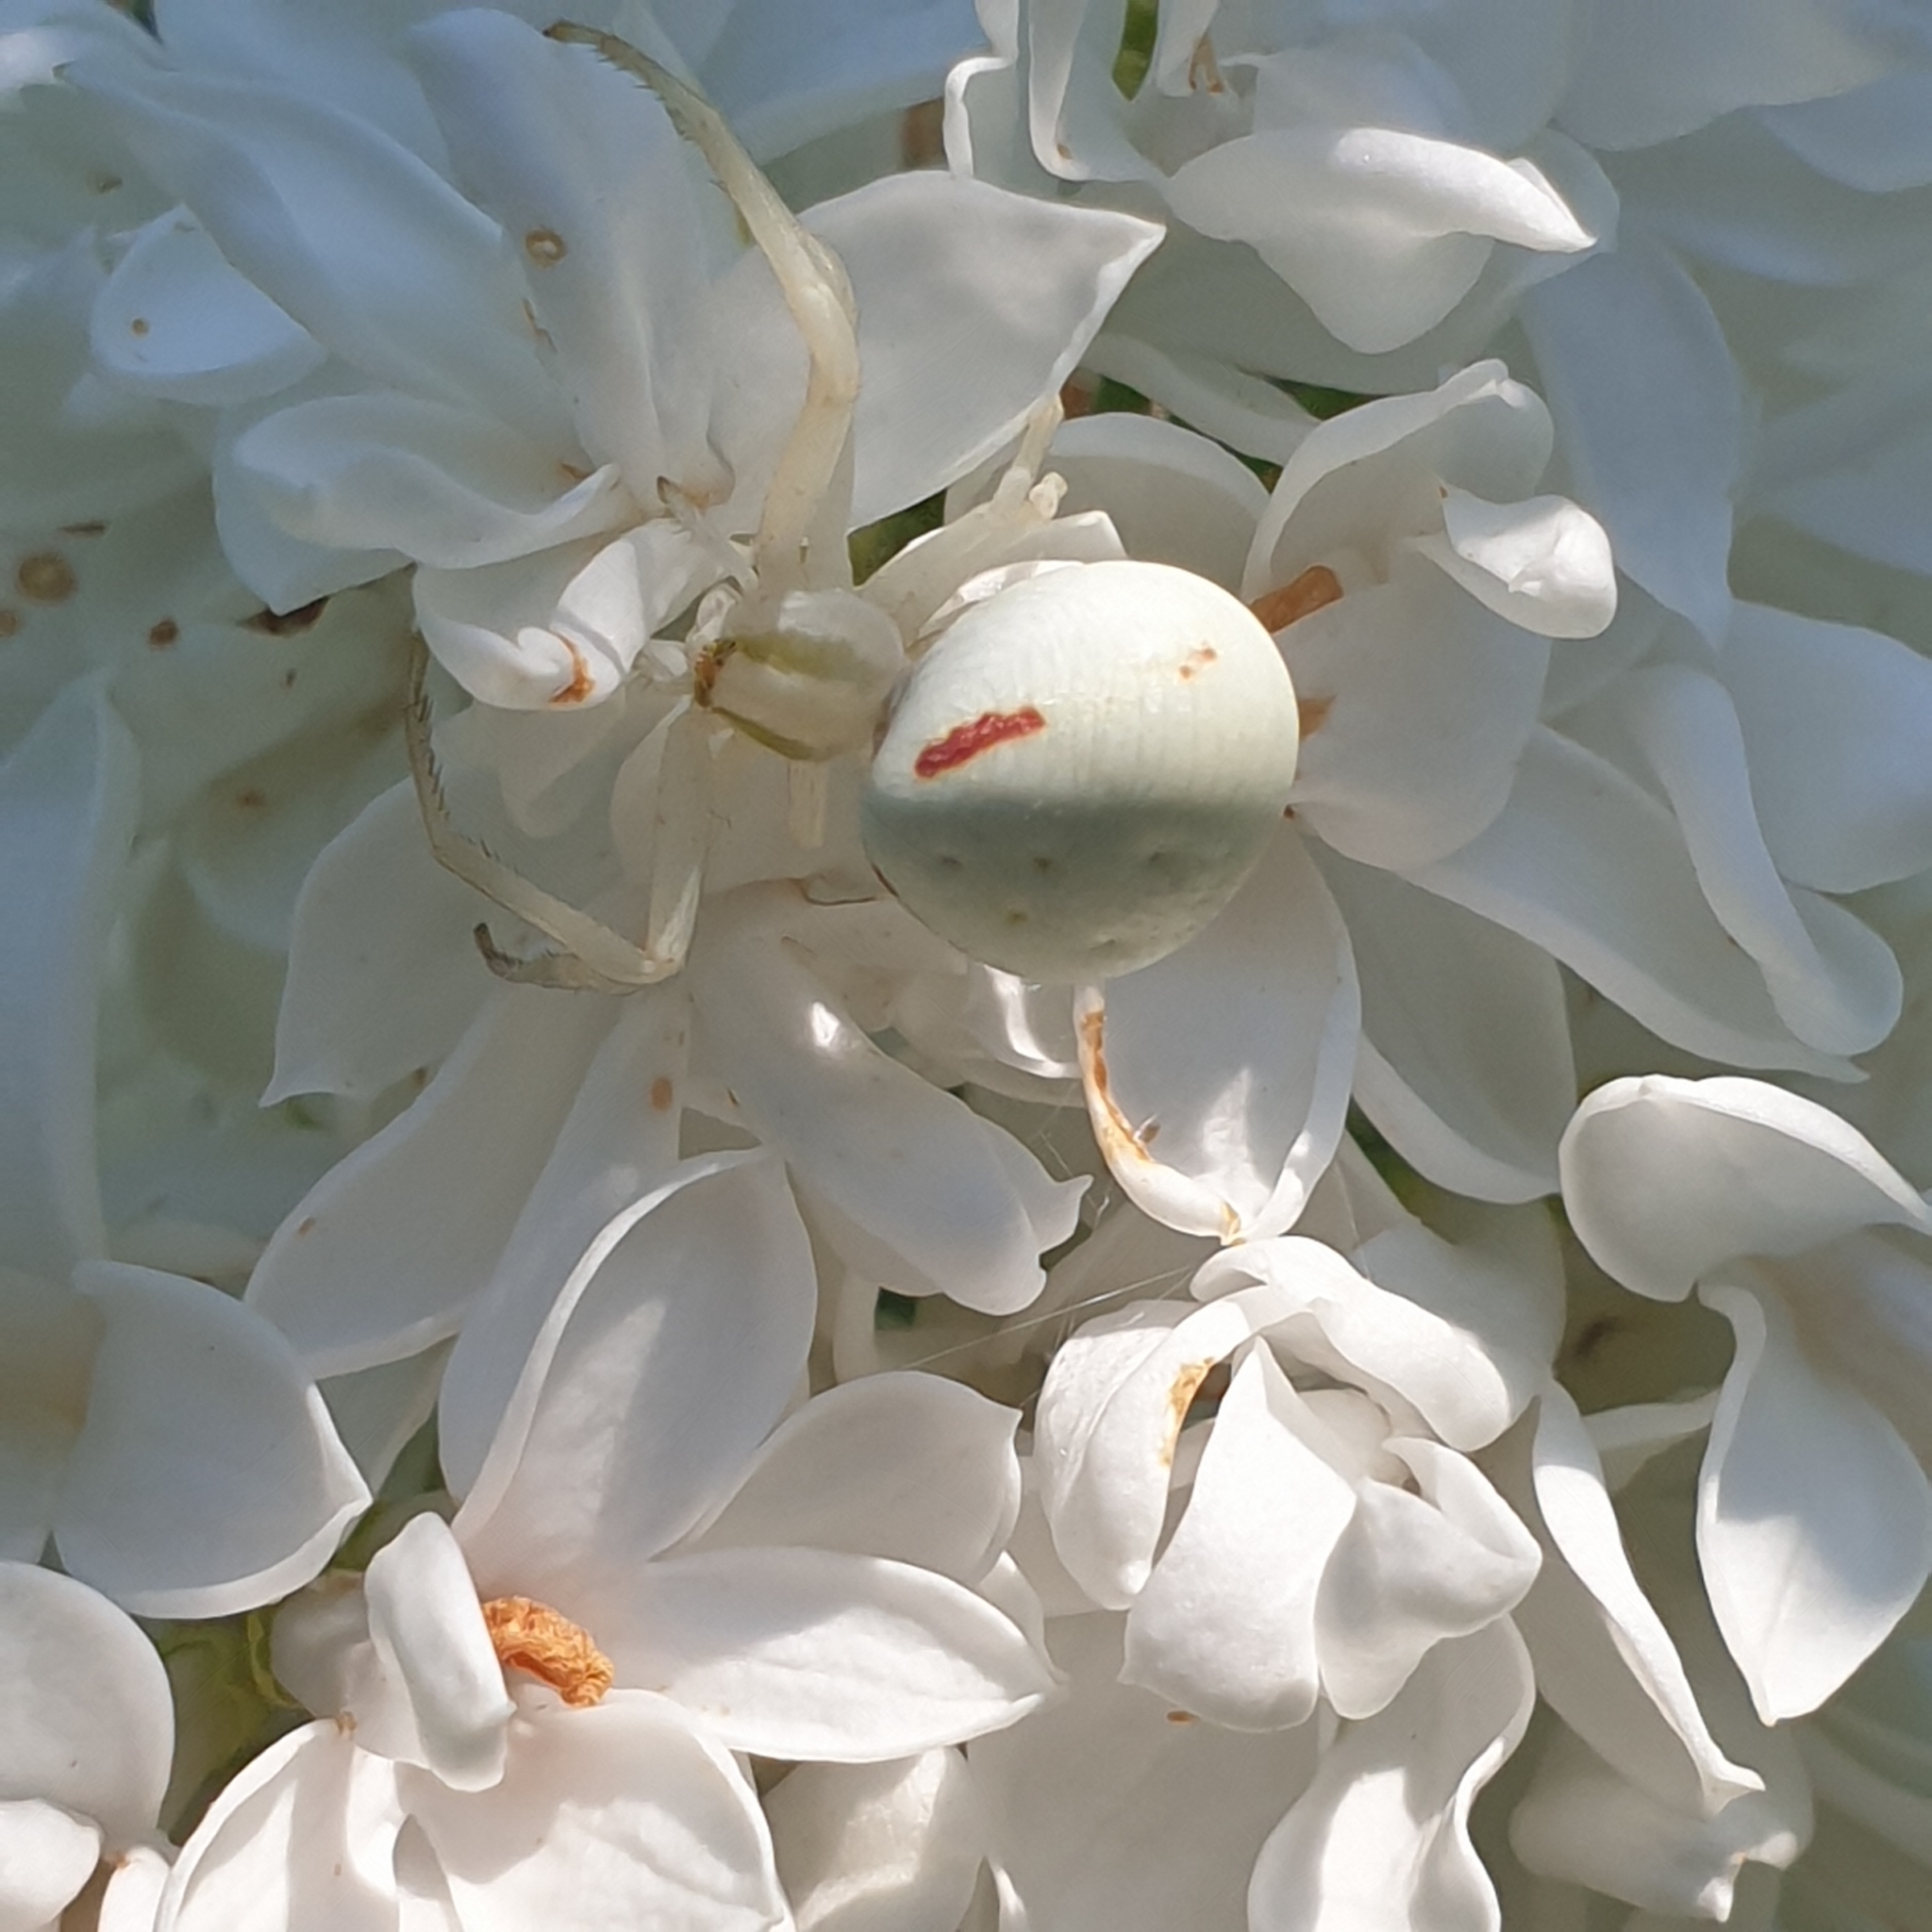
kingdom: Animalia
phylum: Arthropoda
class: Arachnida
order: Araneae
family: Thomisidae
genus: Misumena
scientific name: Misumena vatia
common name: Goldenrod crab spider
